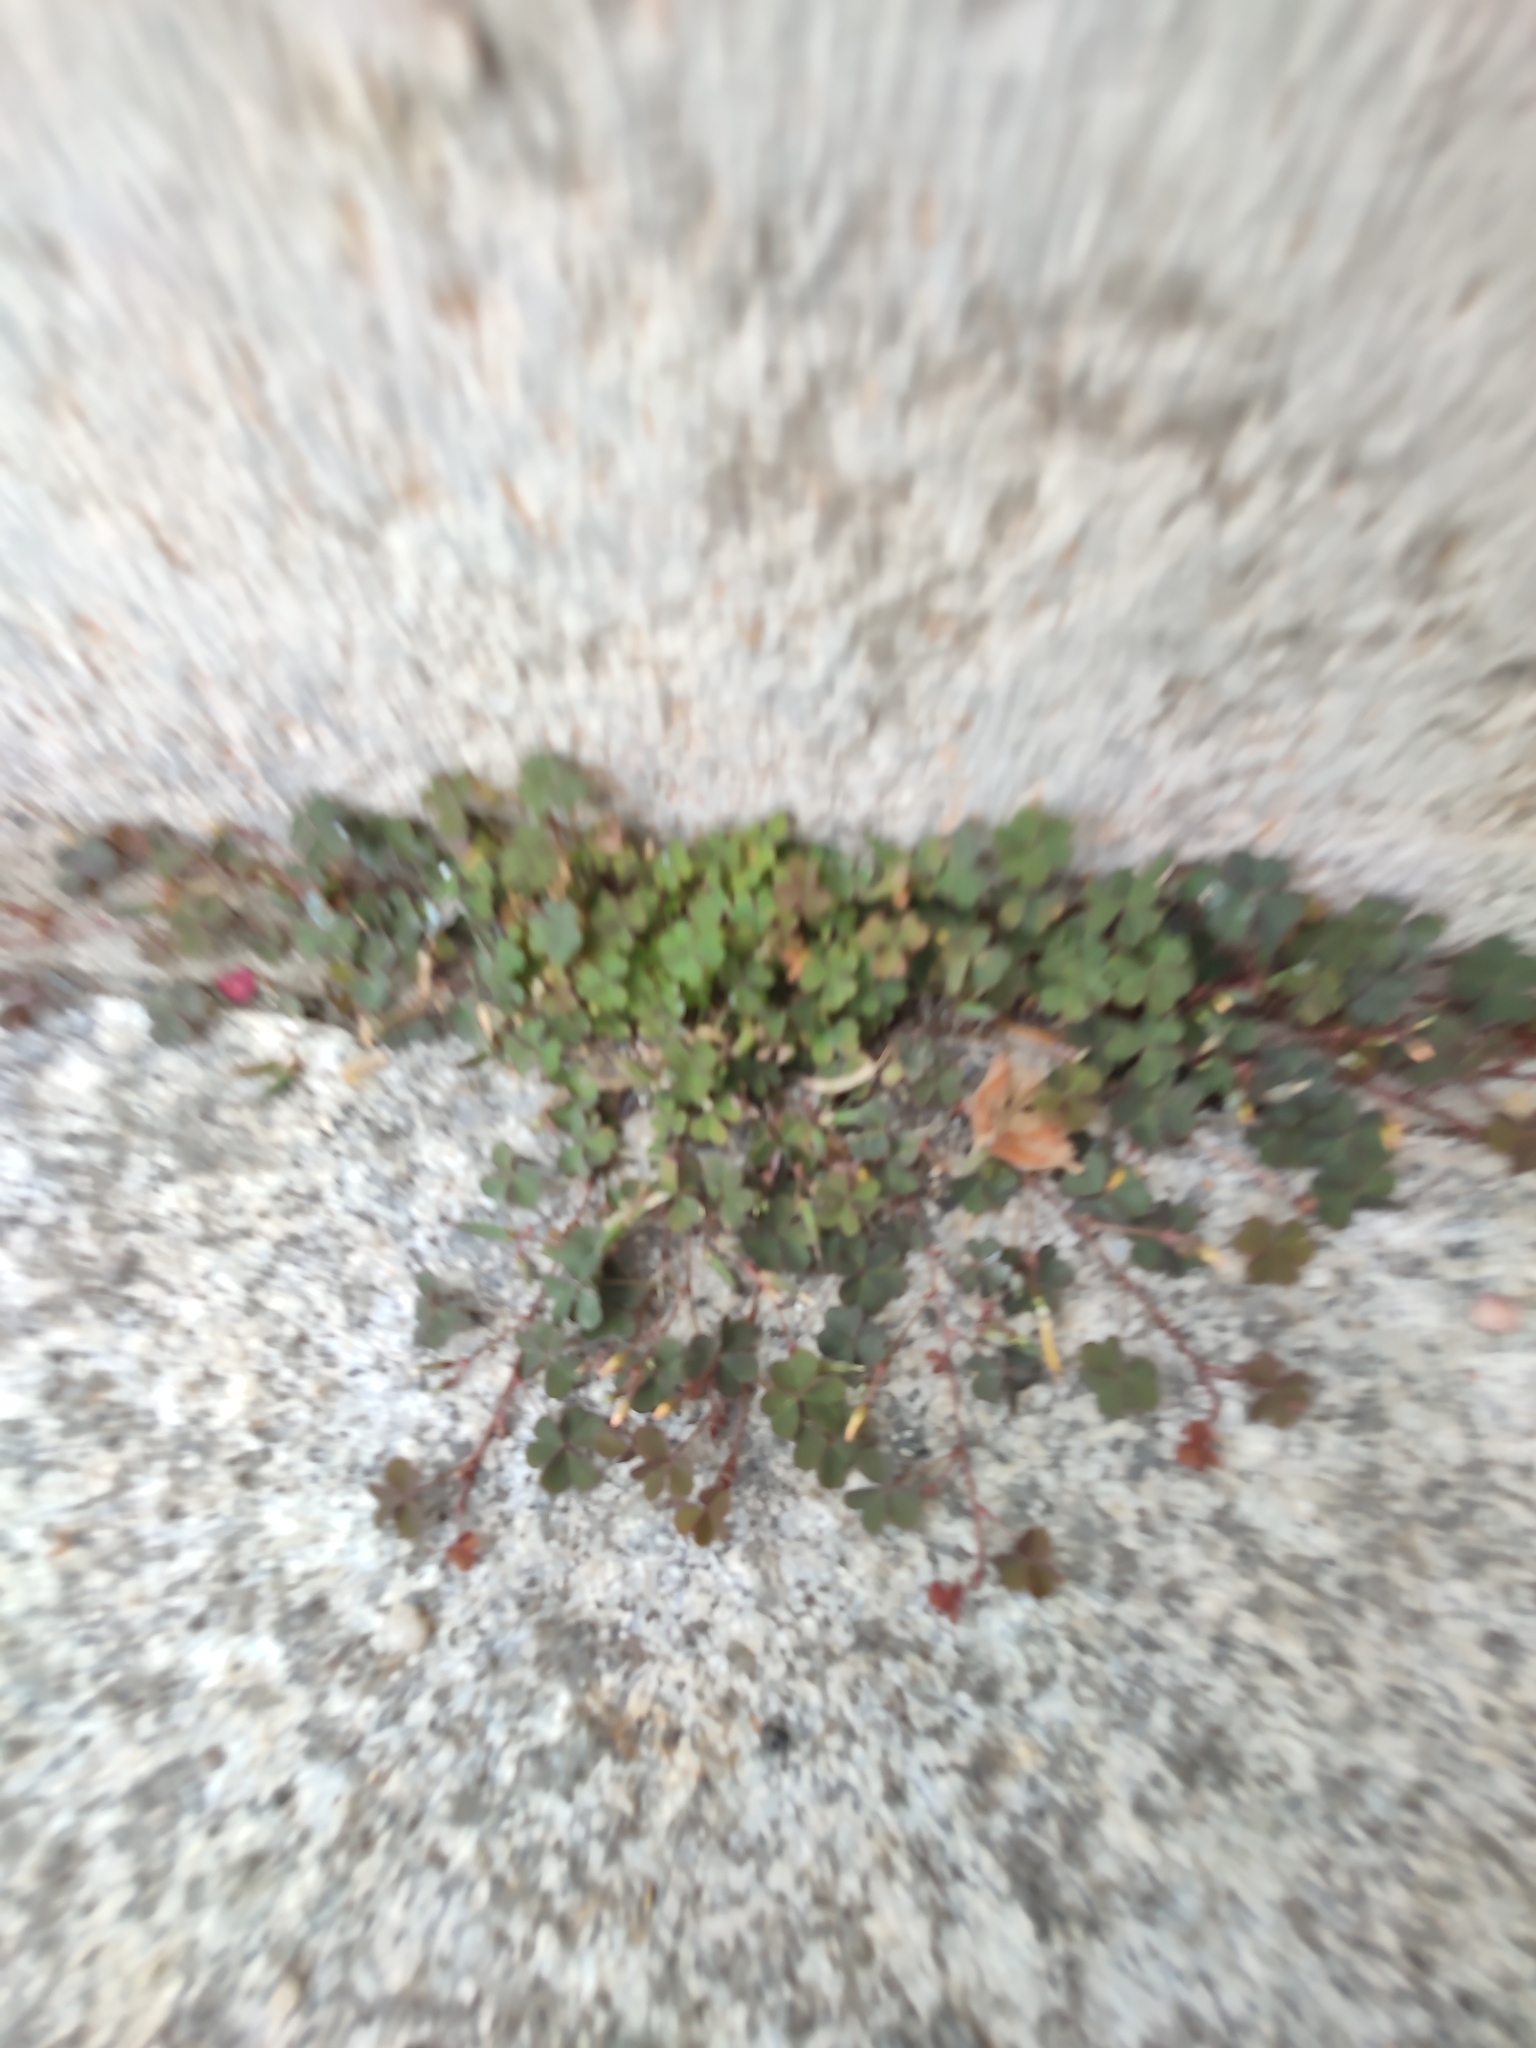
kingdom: Plantae
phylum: Tracheophyta
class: Magnoliopsida
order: Oxalidales
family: Oxalidaceae
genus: Oxalis
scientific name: Oxalis corniculata
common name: Procumbent yellow-sorrel
